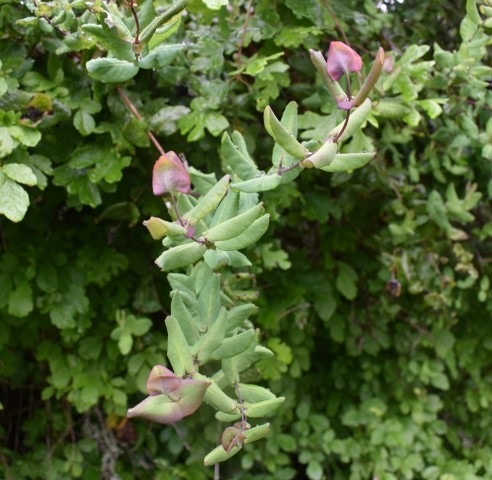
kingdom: Plantae
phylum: Tracheophyta
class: Magnoliopsida
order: Dipsacales
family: Caprifoliaceae
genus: Lonicera
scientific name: Lonicera hispidula
